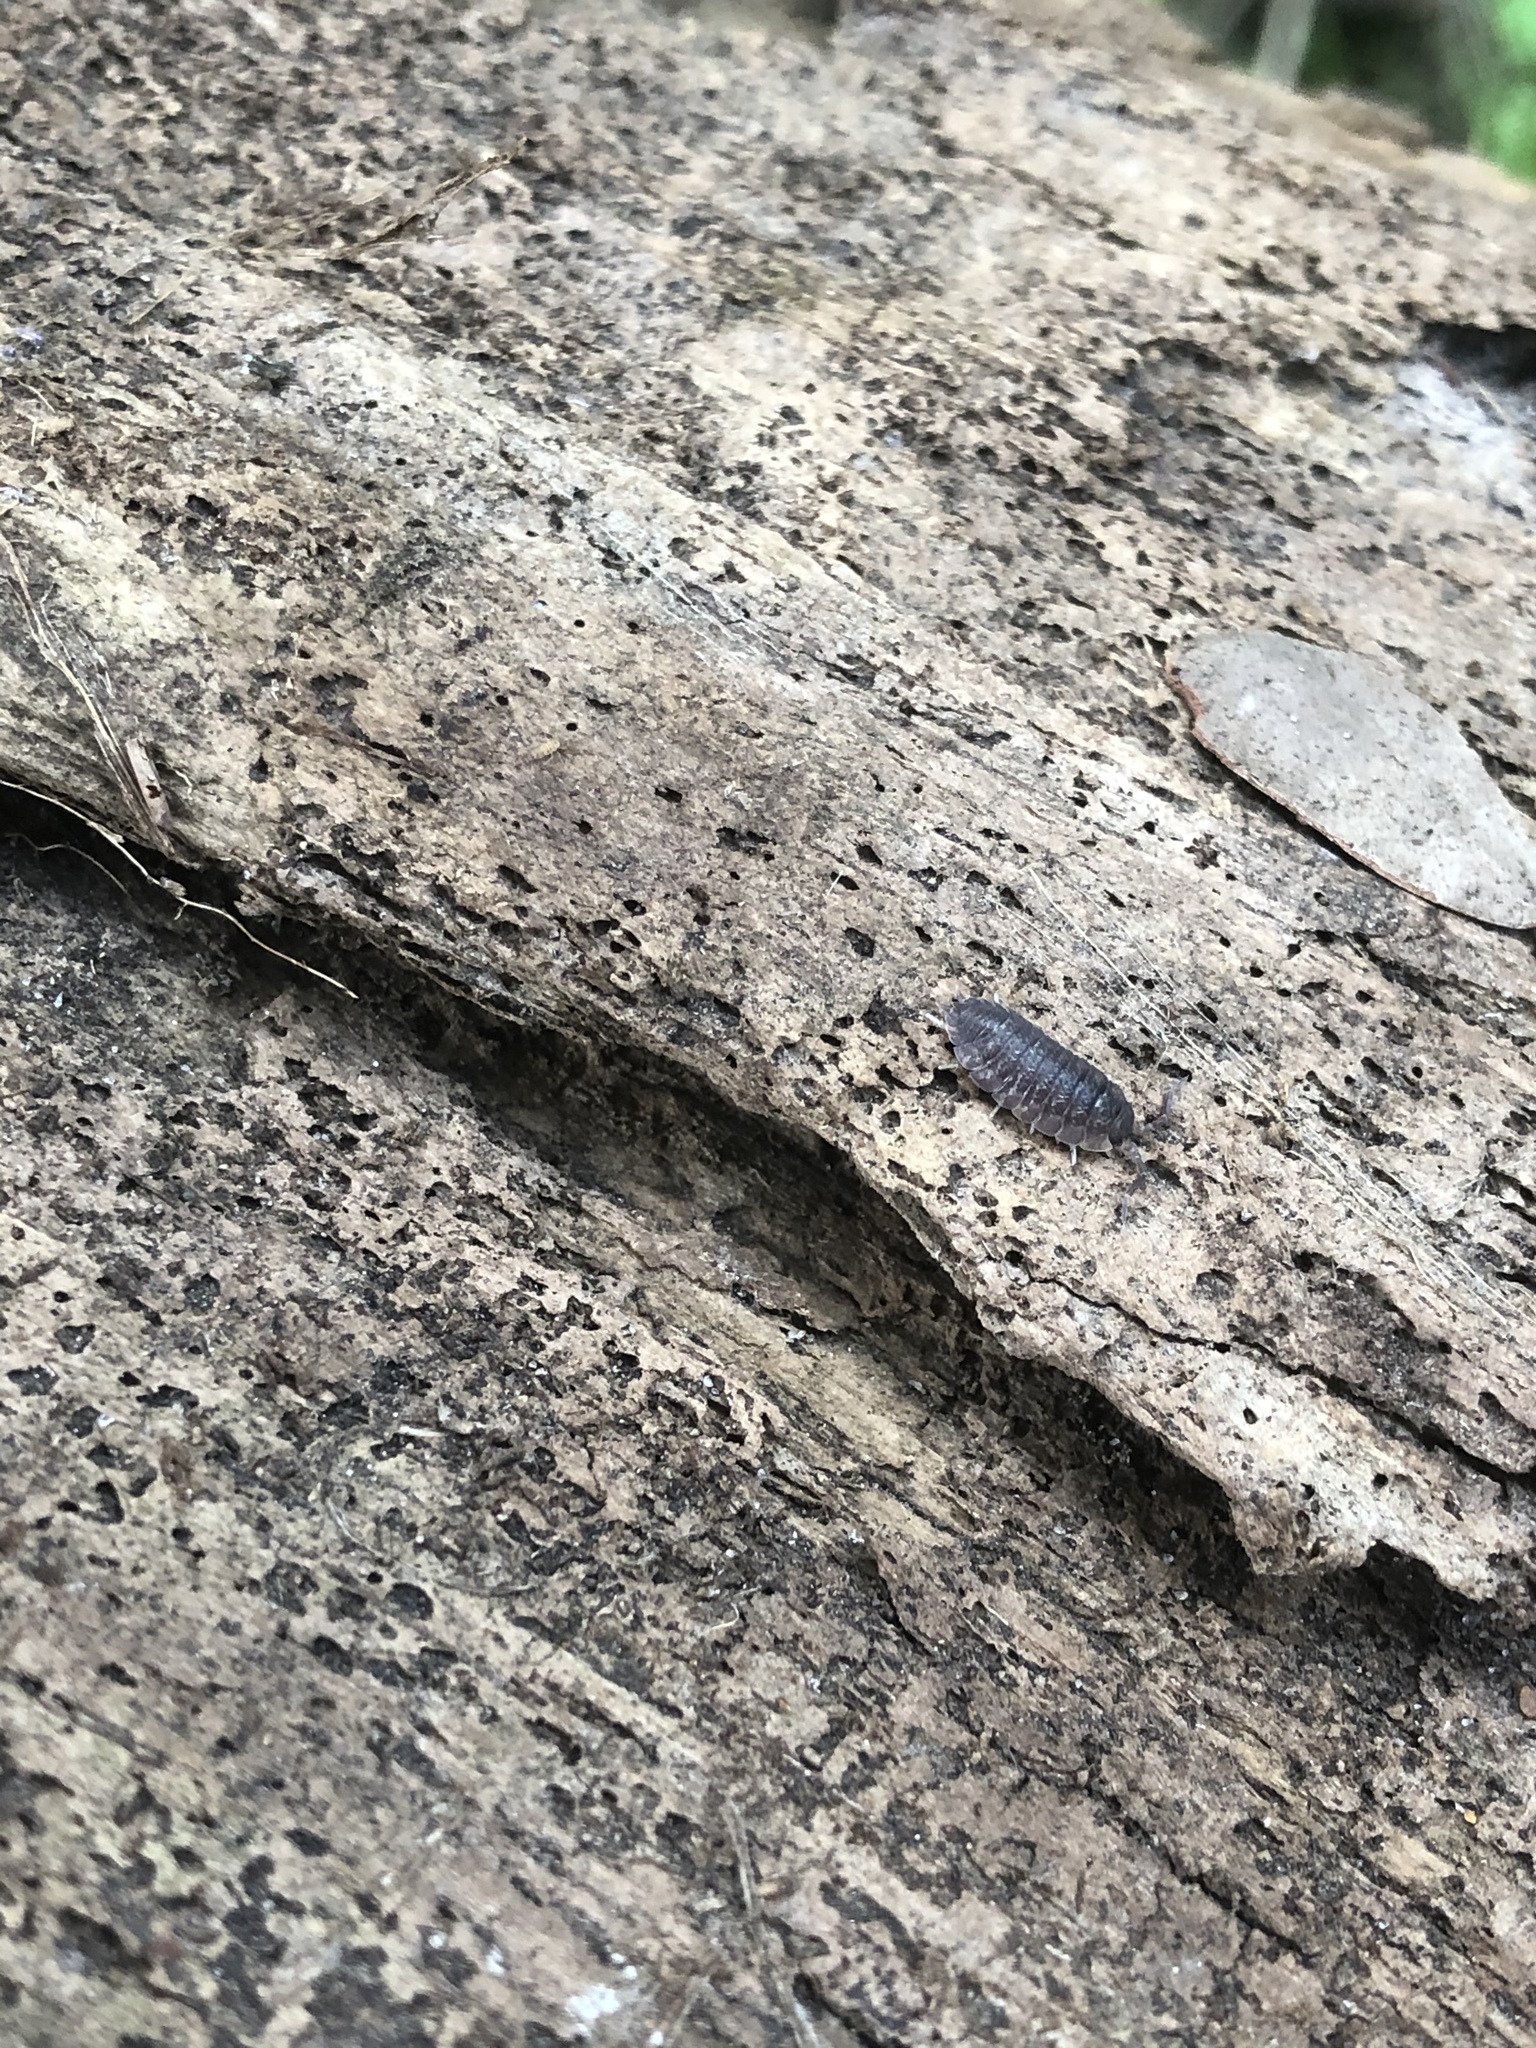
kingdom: Animalia
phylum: Arthropoda
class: Malacostraca
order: Isopoda
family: Porcellionidae
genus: Porcellio
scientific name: Porcellio scaber
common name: Common rough woodlouse
